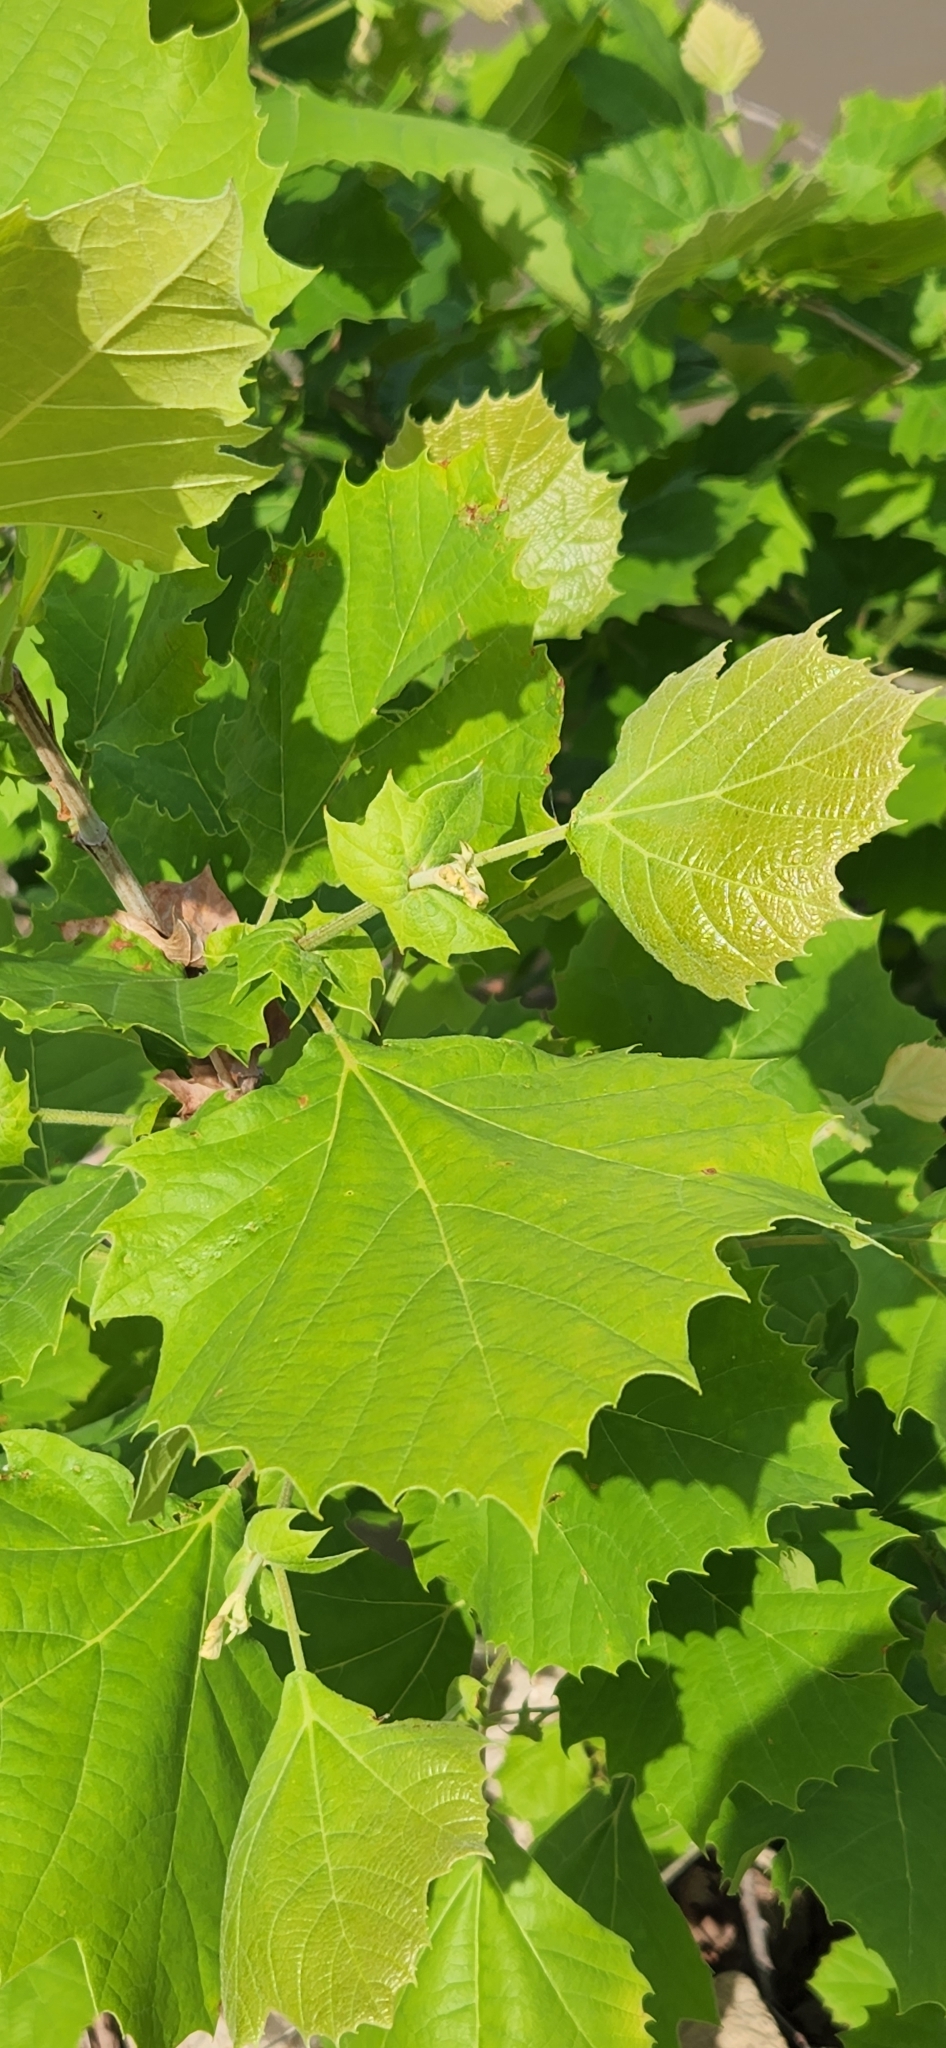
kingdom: Plantae
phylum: Tracheophyta
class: Magnoliopsida
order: Proteales
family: Platanaceae
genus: Platanus
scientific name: Platanus occidentalis
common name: American sycamore
